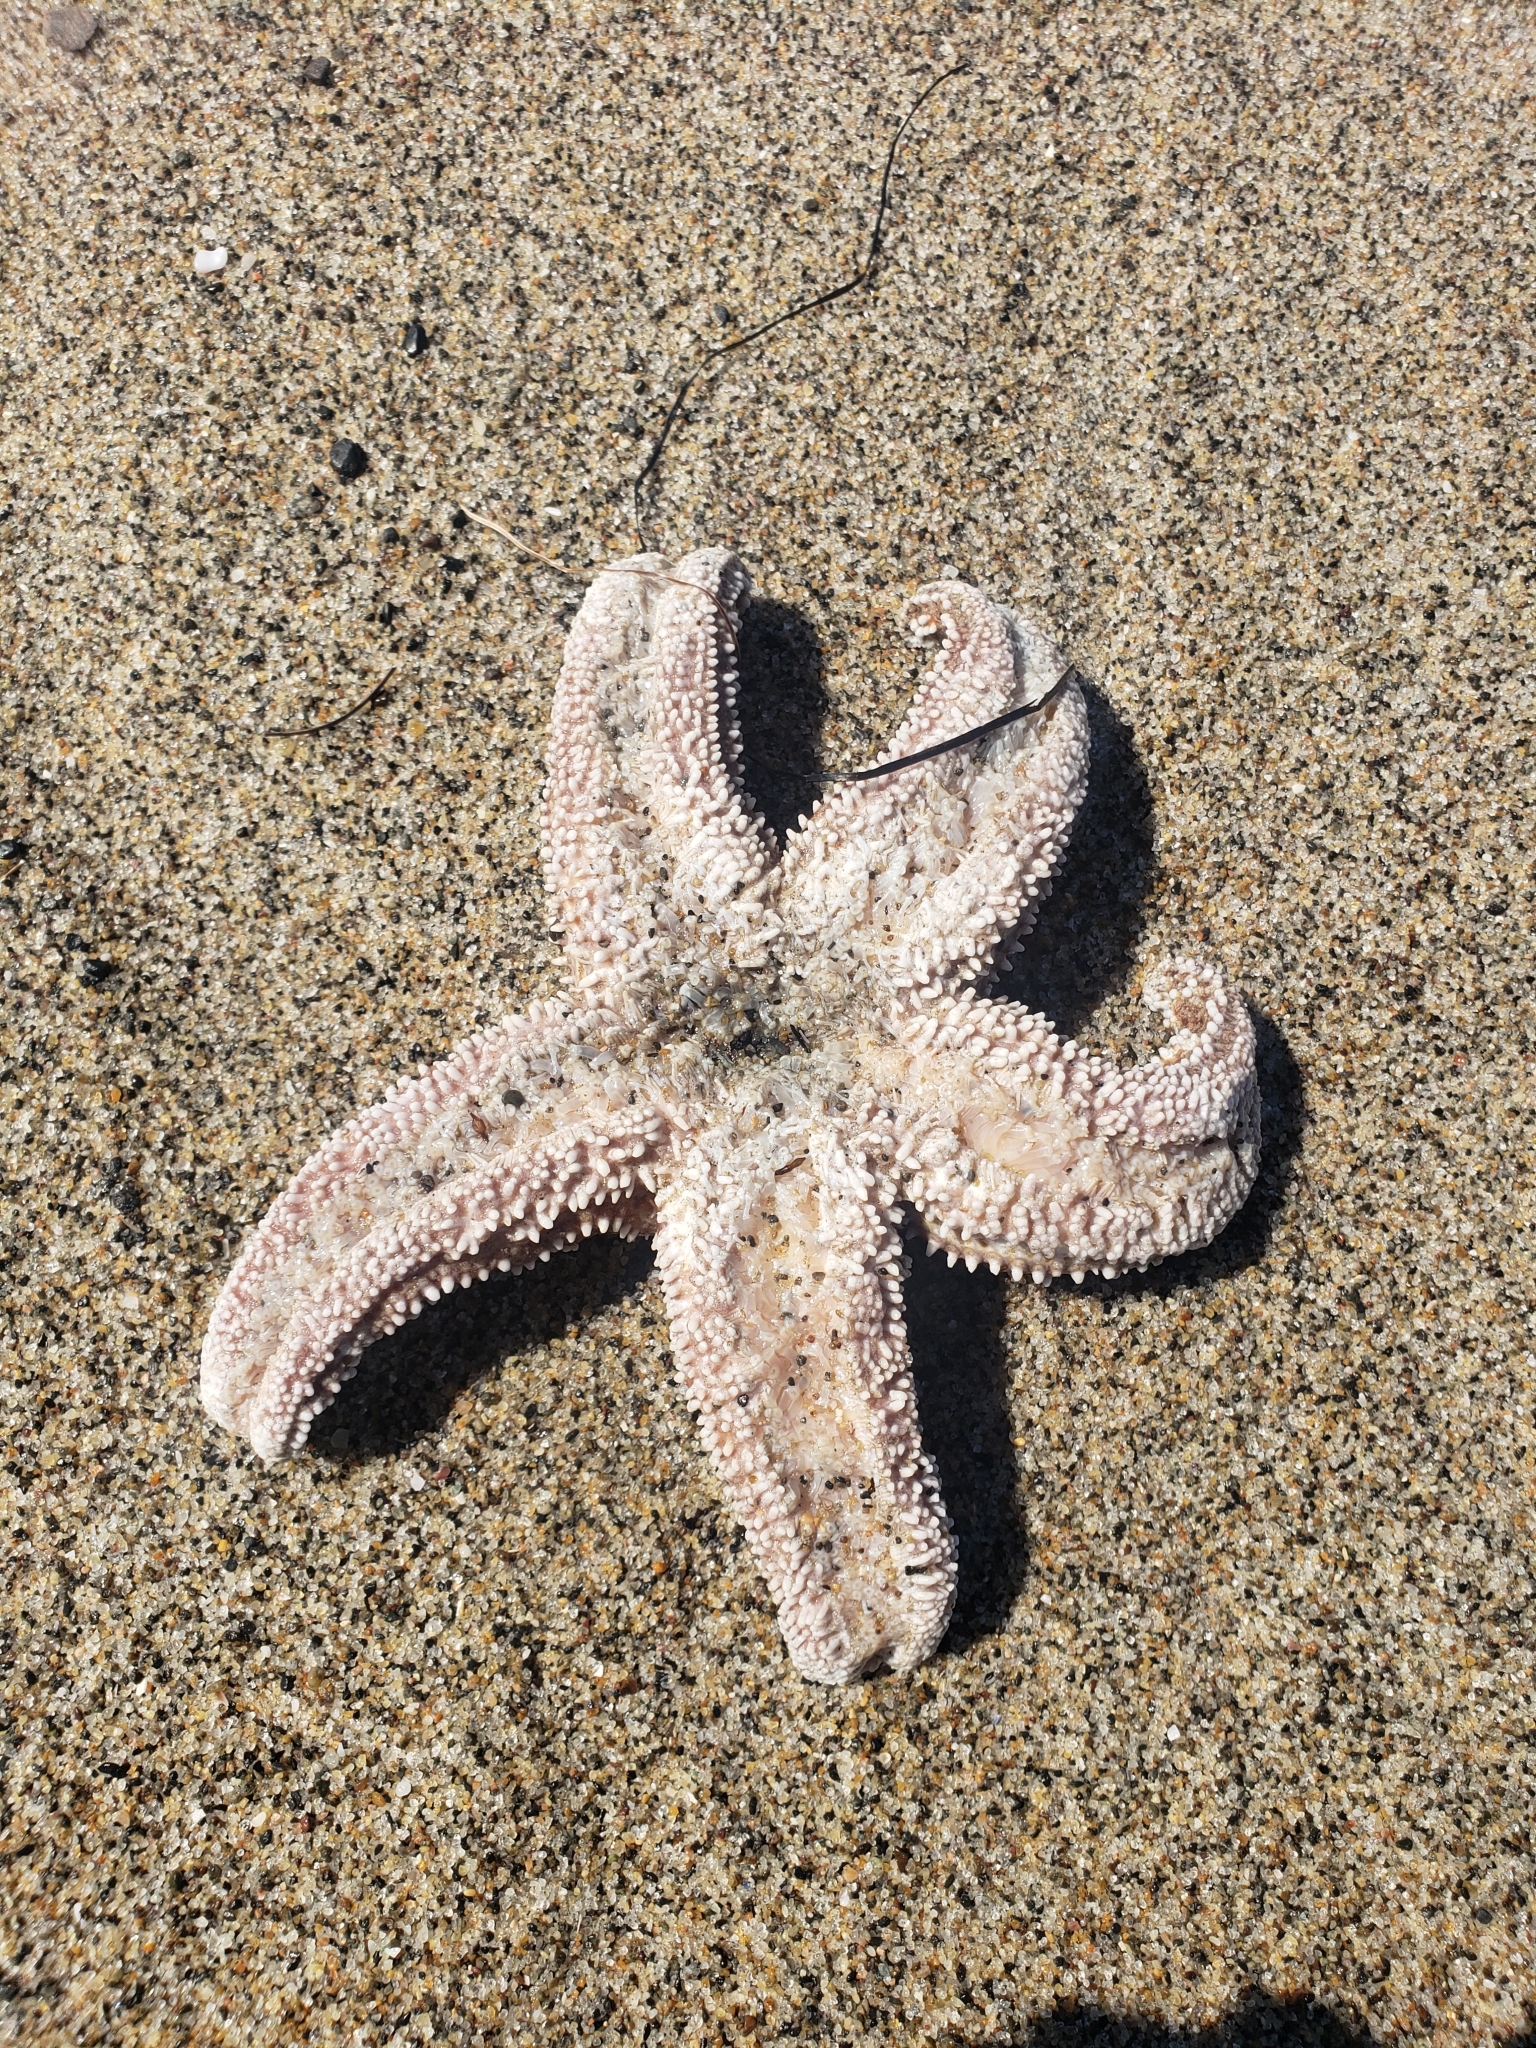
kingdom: Animalia
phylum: Echinodermata
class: Asteroidea
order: Forcipulatida
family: Asteriidae
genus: Pisaster
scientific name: Pisaster ochraceus
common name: Ochre stars
